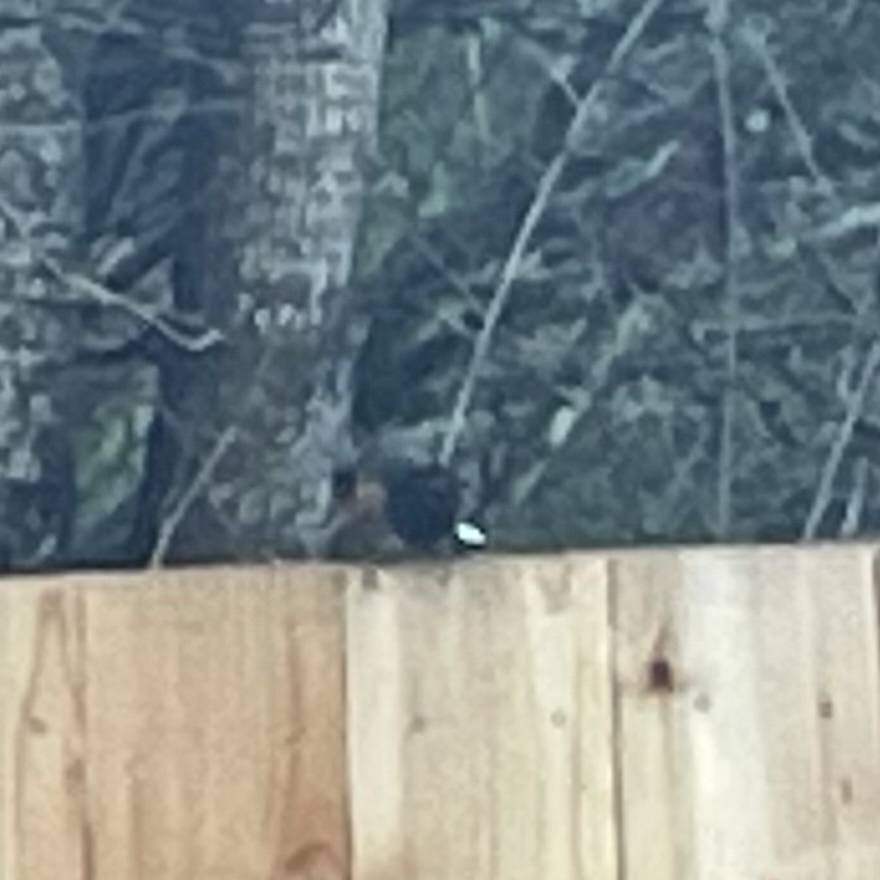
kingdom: Animalia
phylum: Chordata
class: Aves
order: Passeriformes
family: Passerellidae
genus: Pipilo
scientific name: Pipilo maculatus
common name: Spotted towhee
